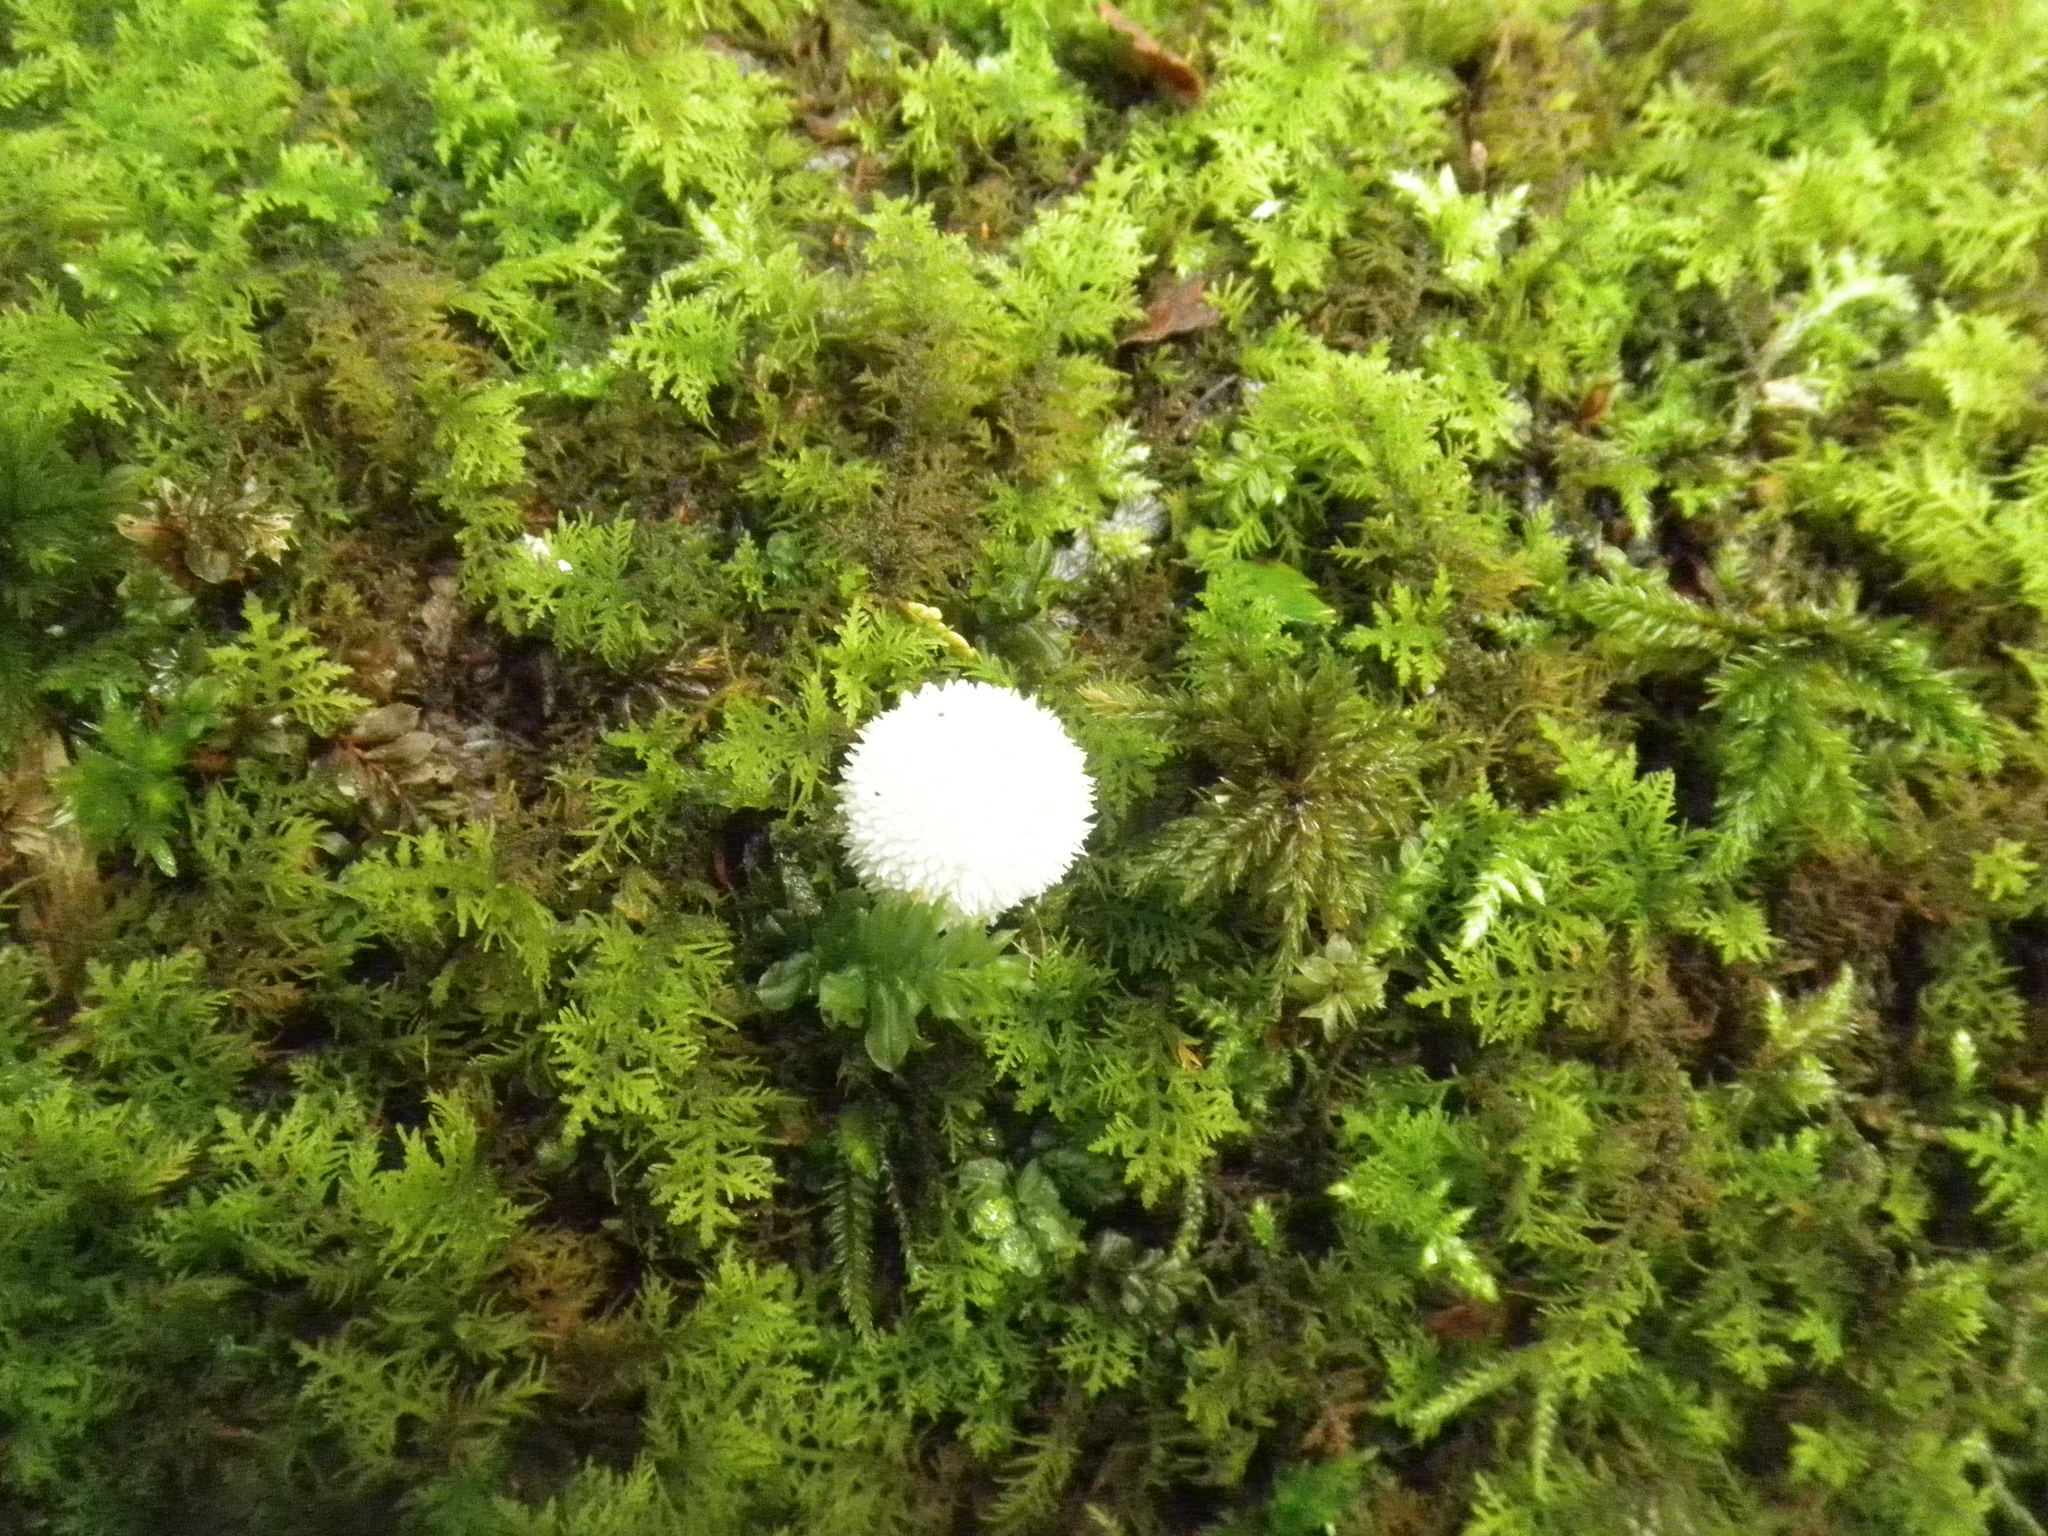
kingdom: Fungi
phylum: Basidiomycota
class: Agaricomycetes
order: Agaricales
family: Lycoperdaceae
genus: Lycoperdon
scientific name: Lycoperdon
